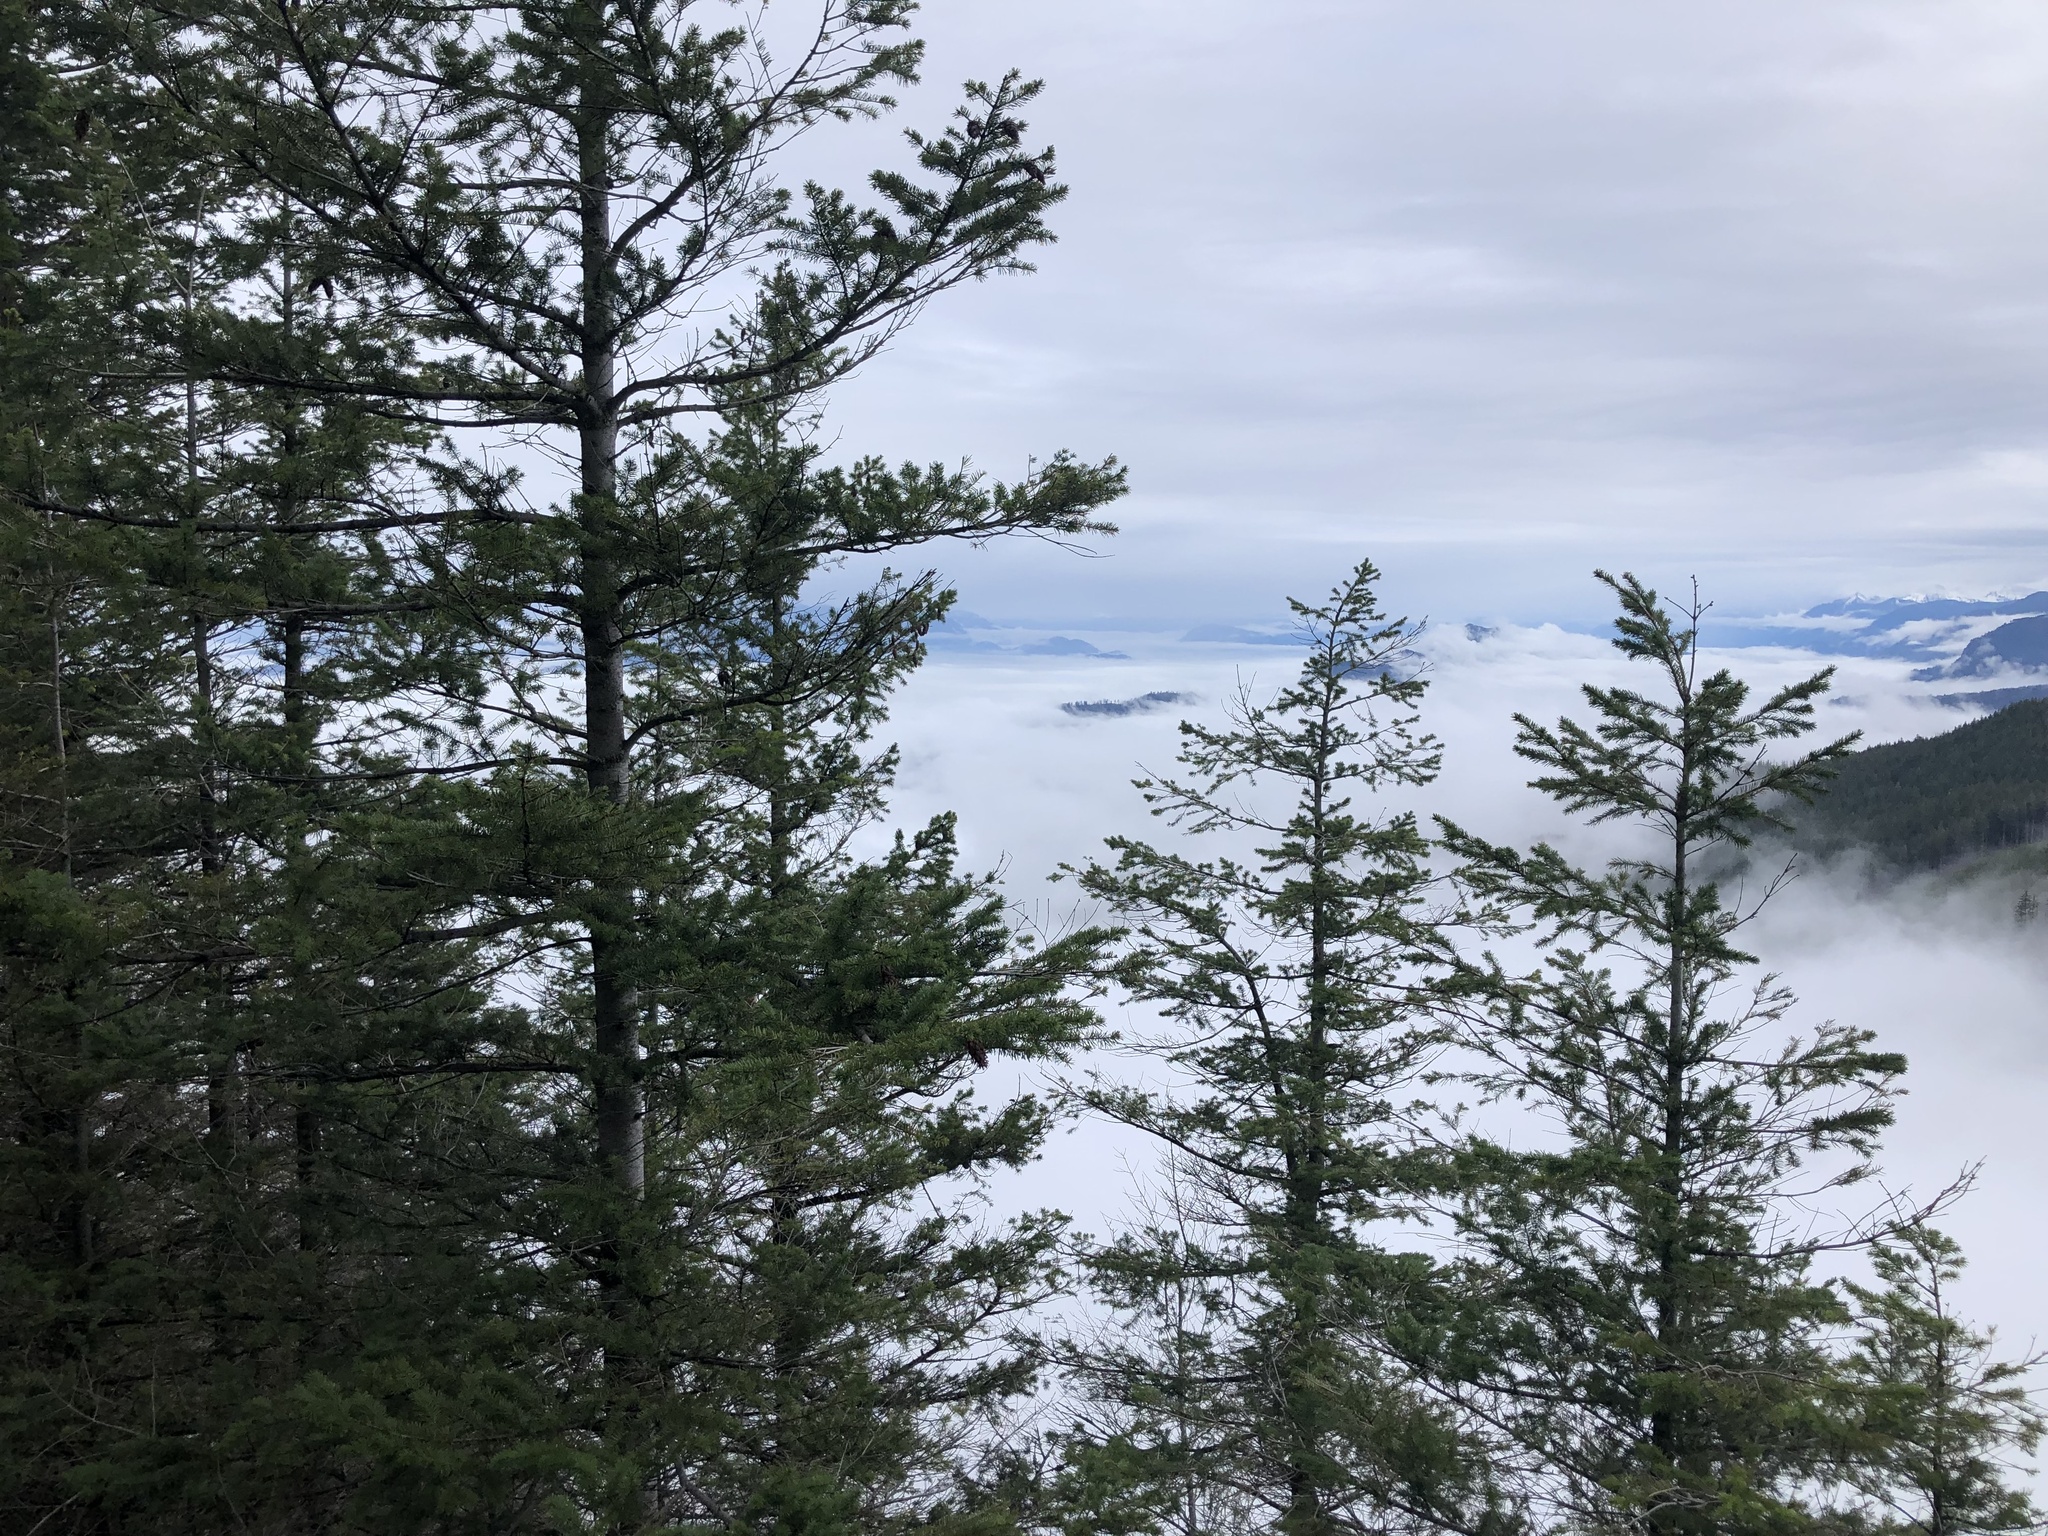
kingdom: Plantae
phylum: Tracheophyta
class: Pinopsida
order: Pinales
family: Pinaceae
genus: Pseudotsuga
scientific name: Pseudotsuga menziesii
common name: Douglas fir
